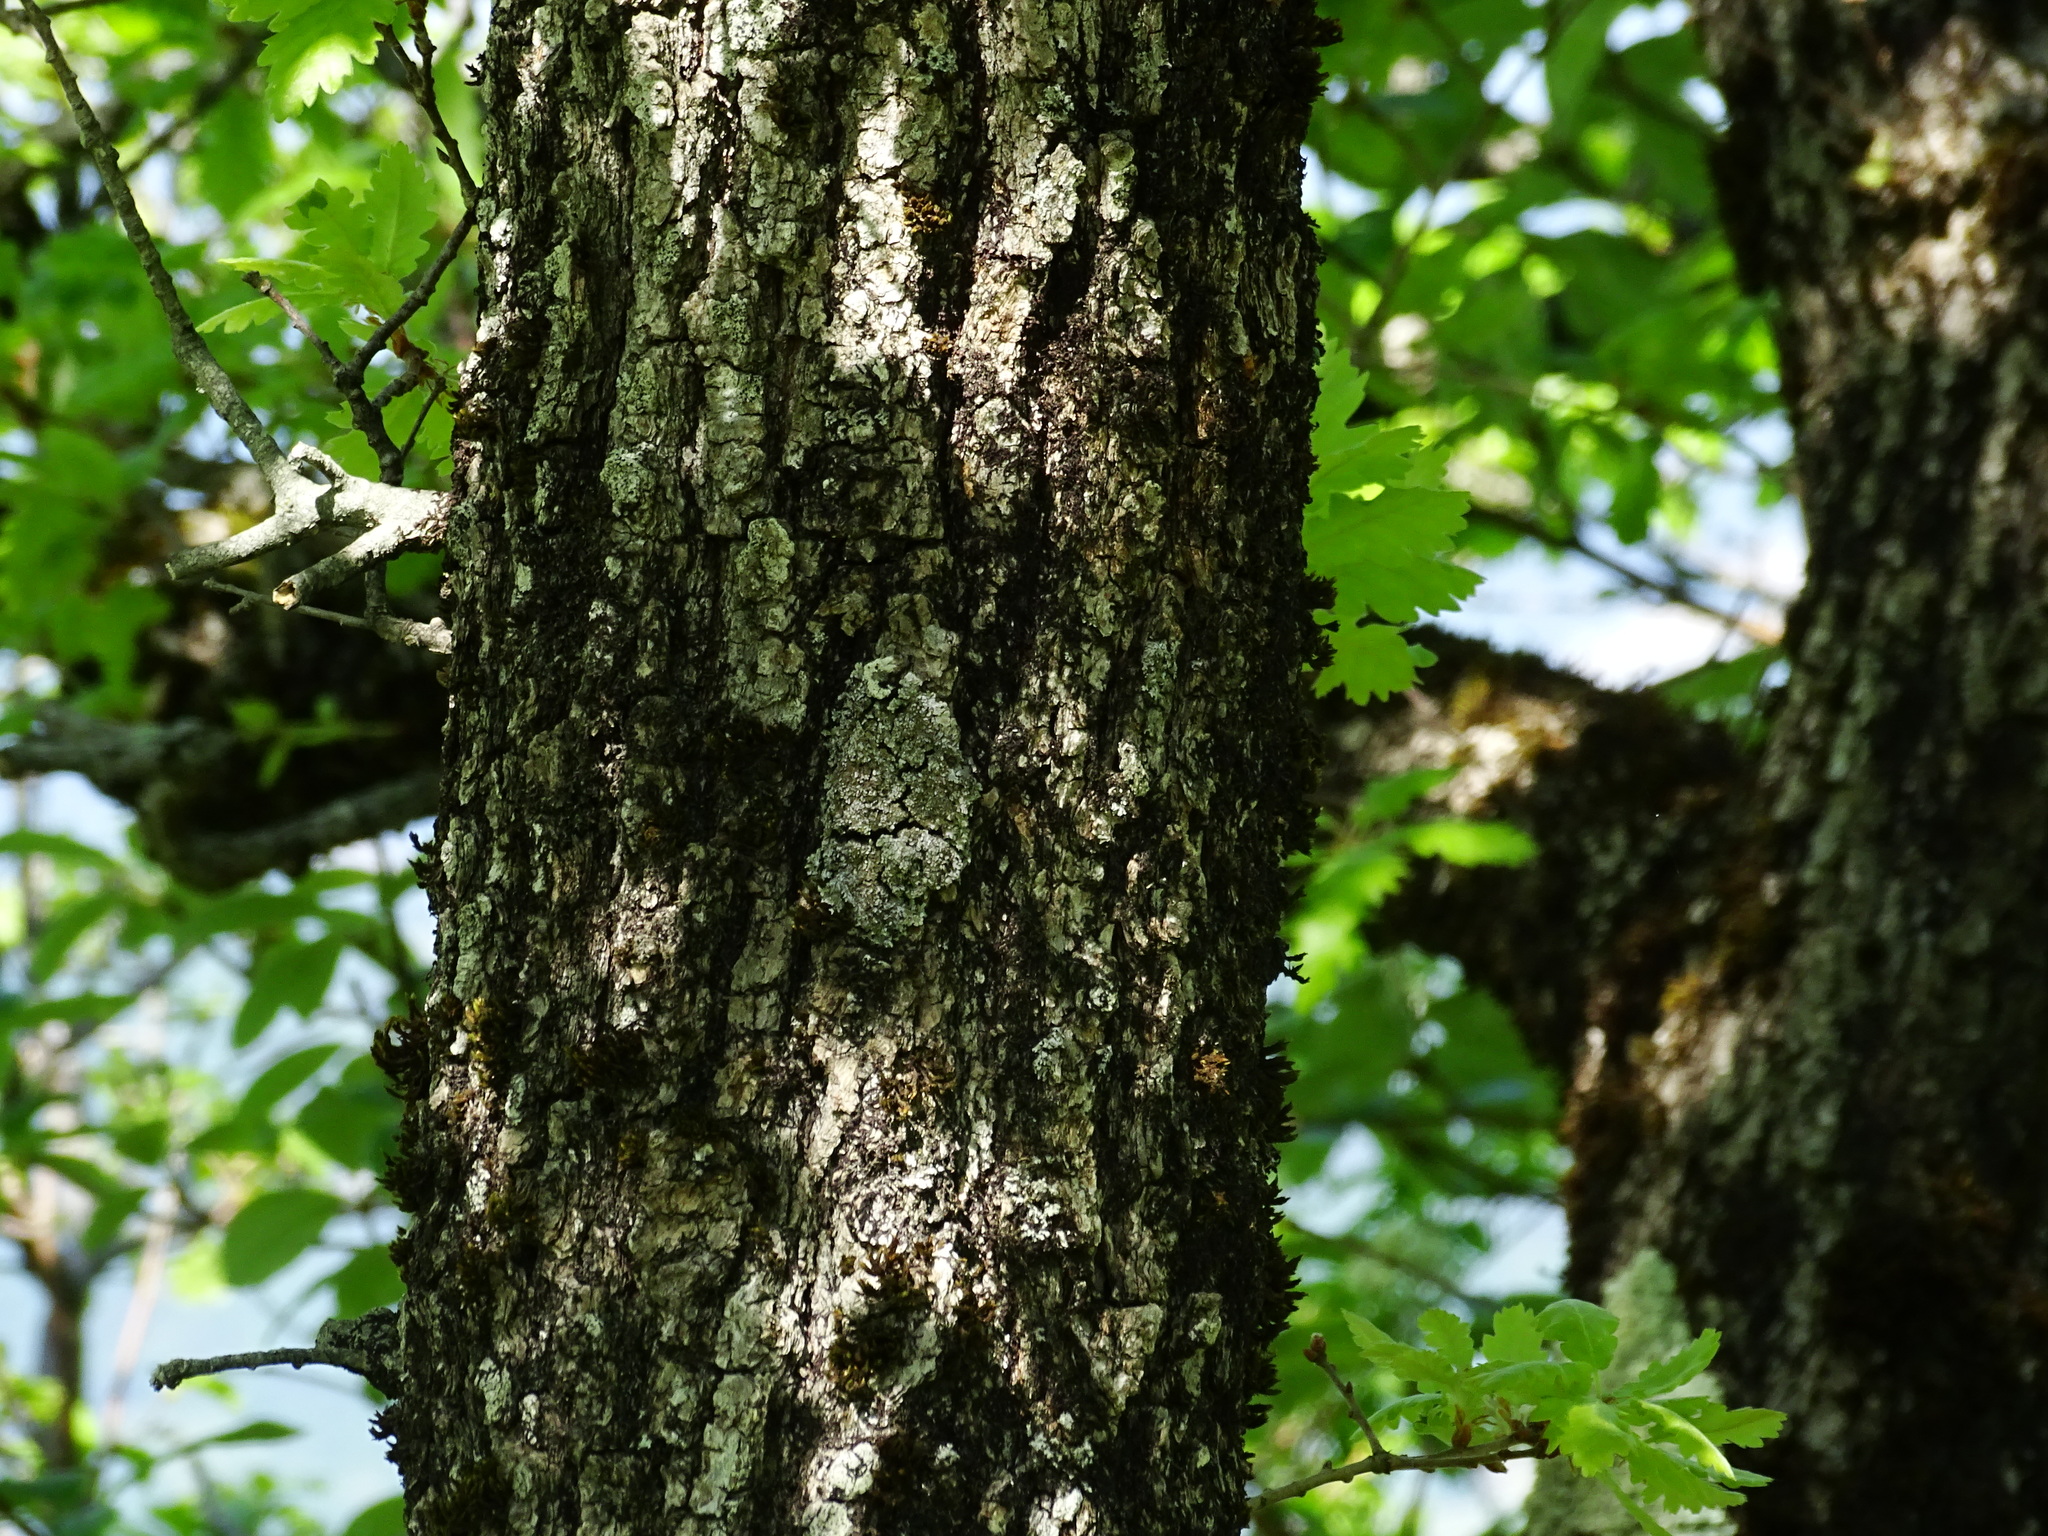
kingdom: Plantae
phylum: Tracheophyta
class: Magnoliopsida
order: Fagales
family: Fagaceae
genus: Quercus
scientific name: Quercus pubescens
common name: Downy oak
